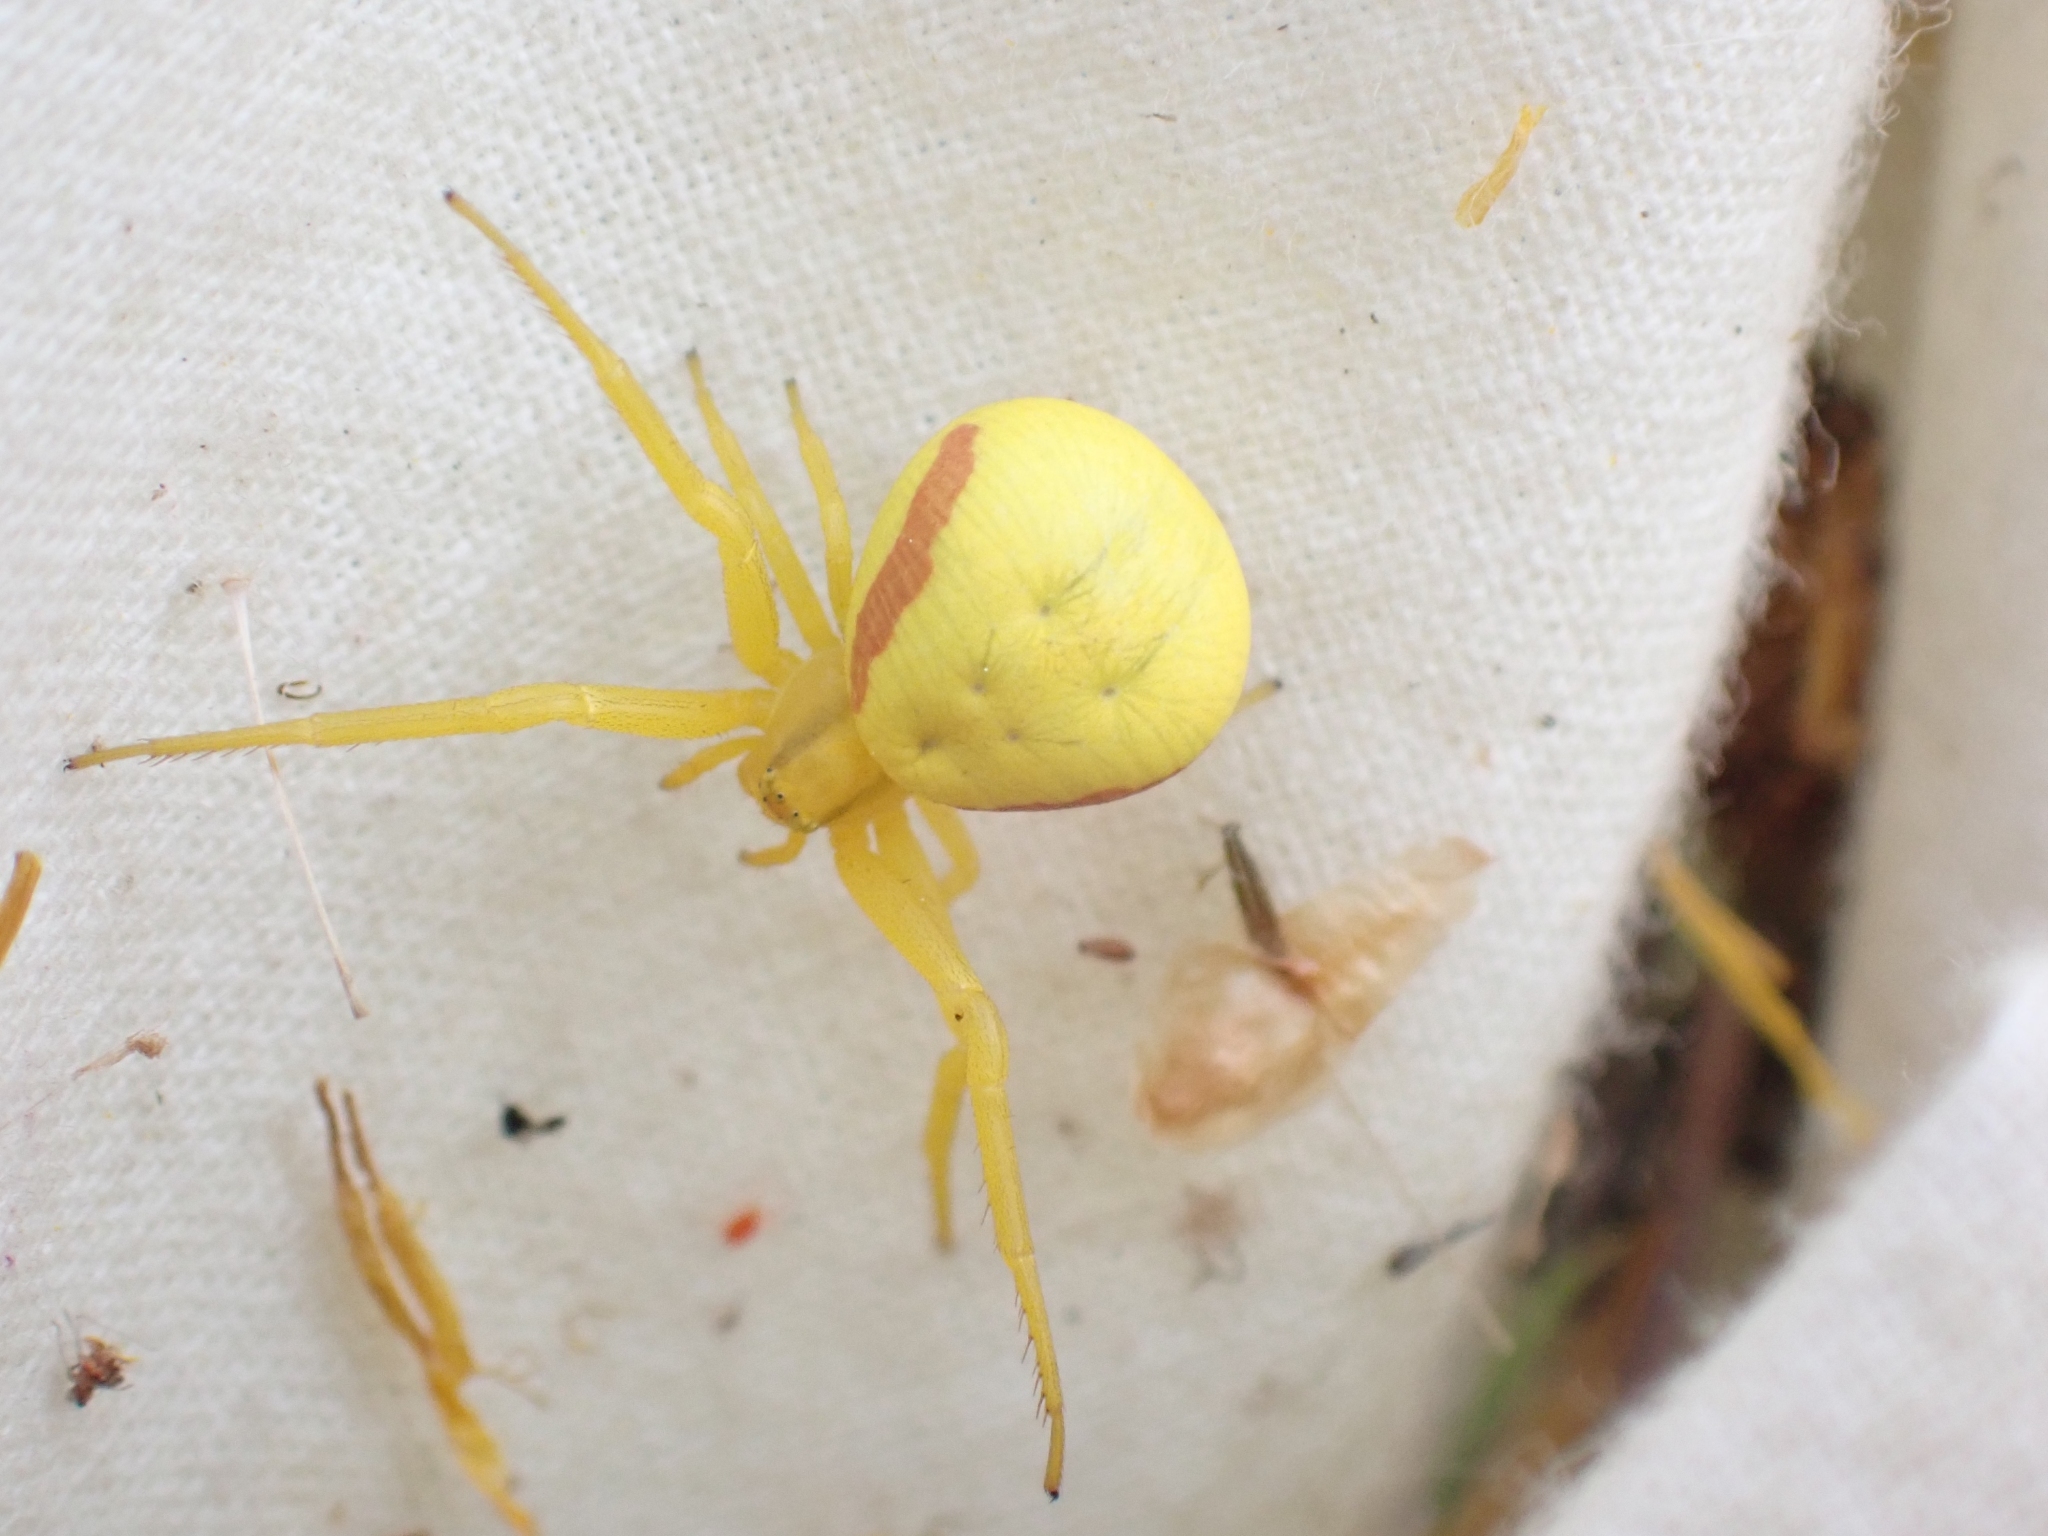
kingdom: Animalia
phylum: Arthropoda
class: Arachnida
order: Araneae
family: Thomisidae
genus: Misumena
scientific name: Misumena vatia
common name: Goldenrod crab spider
